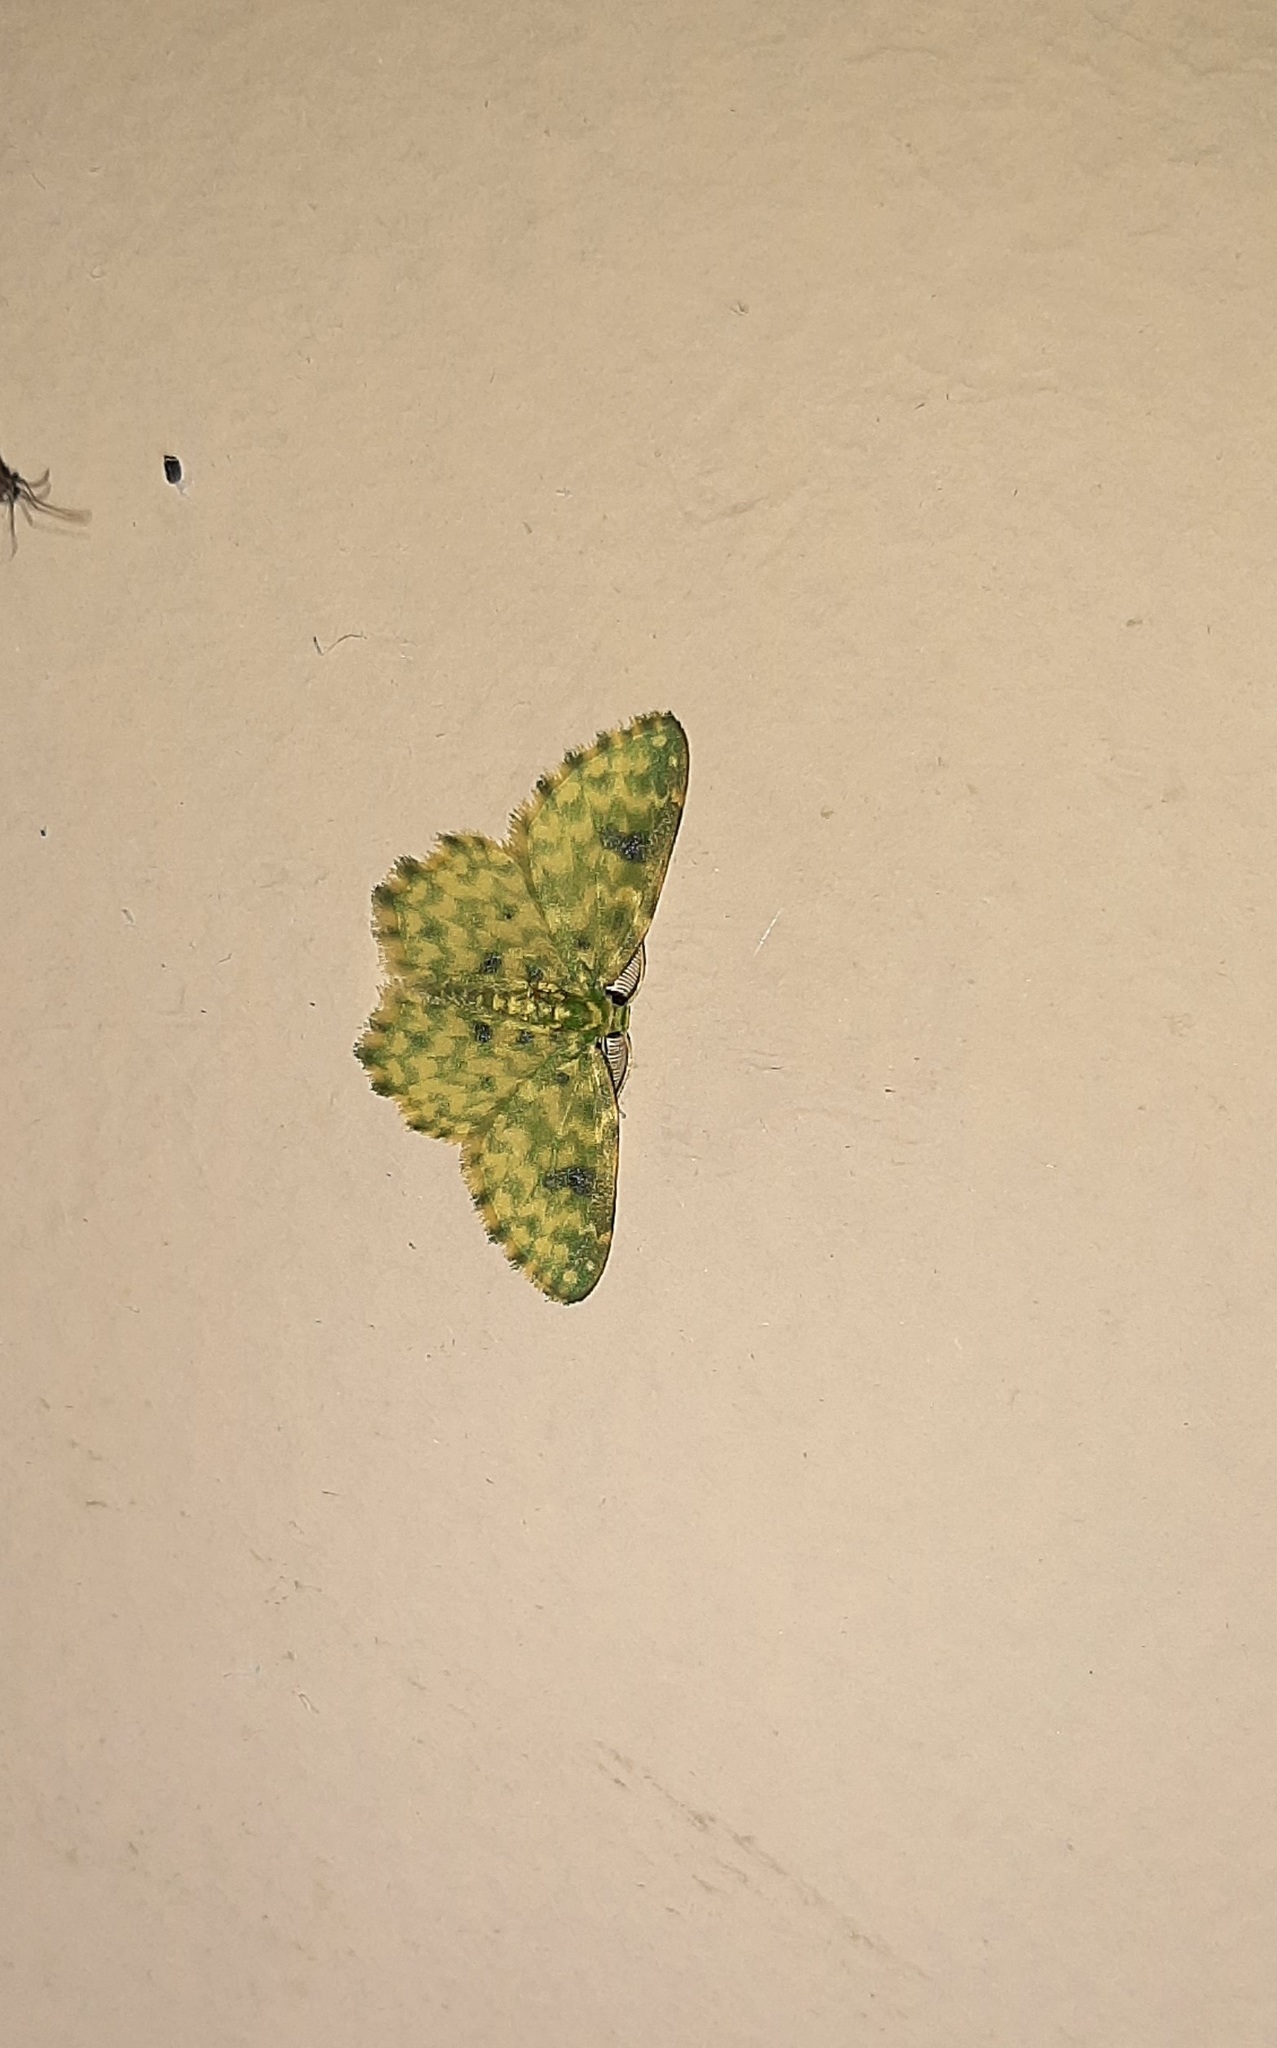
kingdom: Animalia
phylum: Arthropoda
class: Insecta
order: Lepidoptera
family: Geometridae
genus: Hydata
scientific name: Hydata stigmatica
